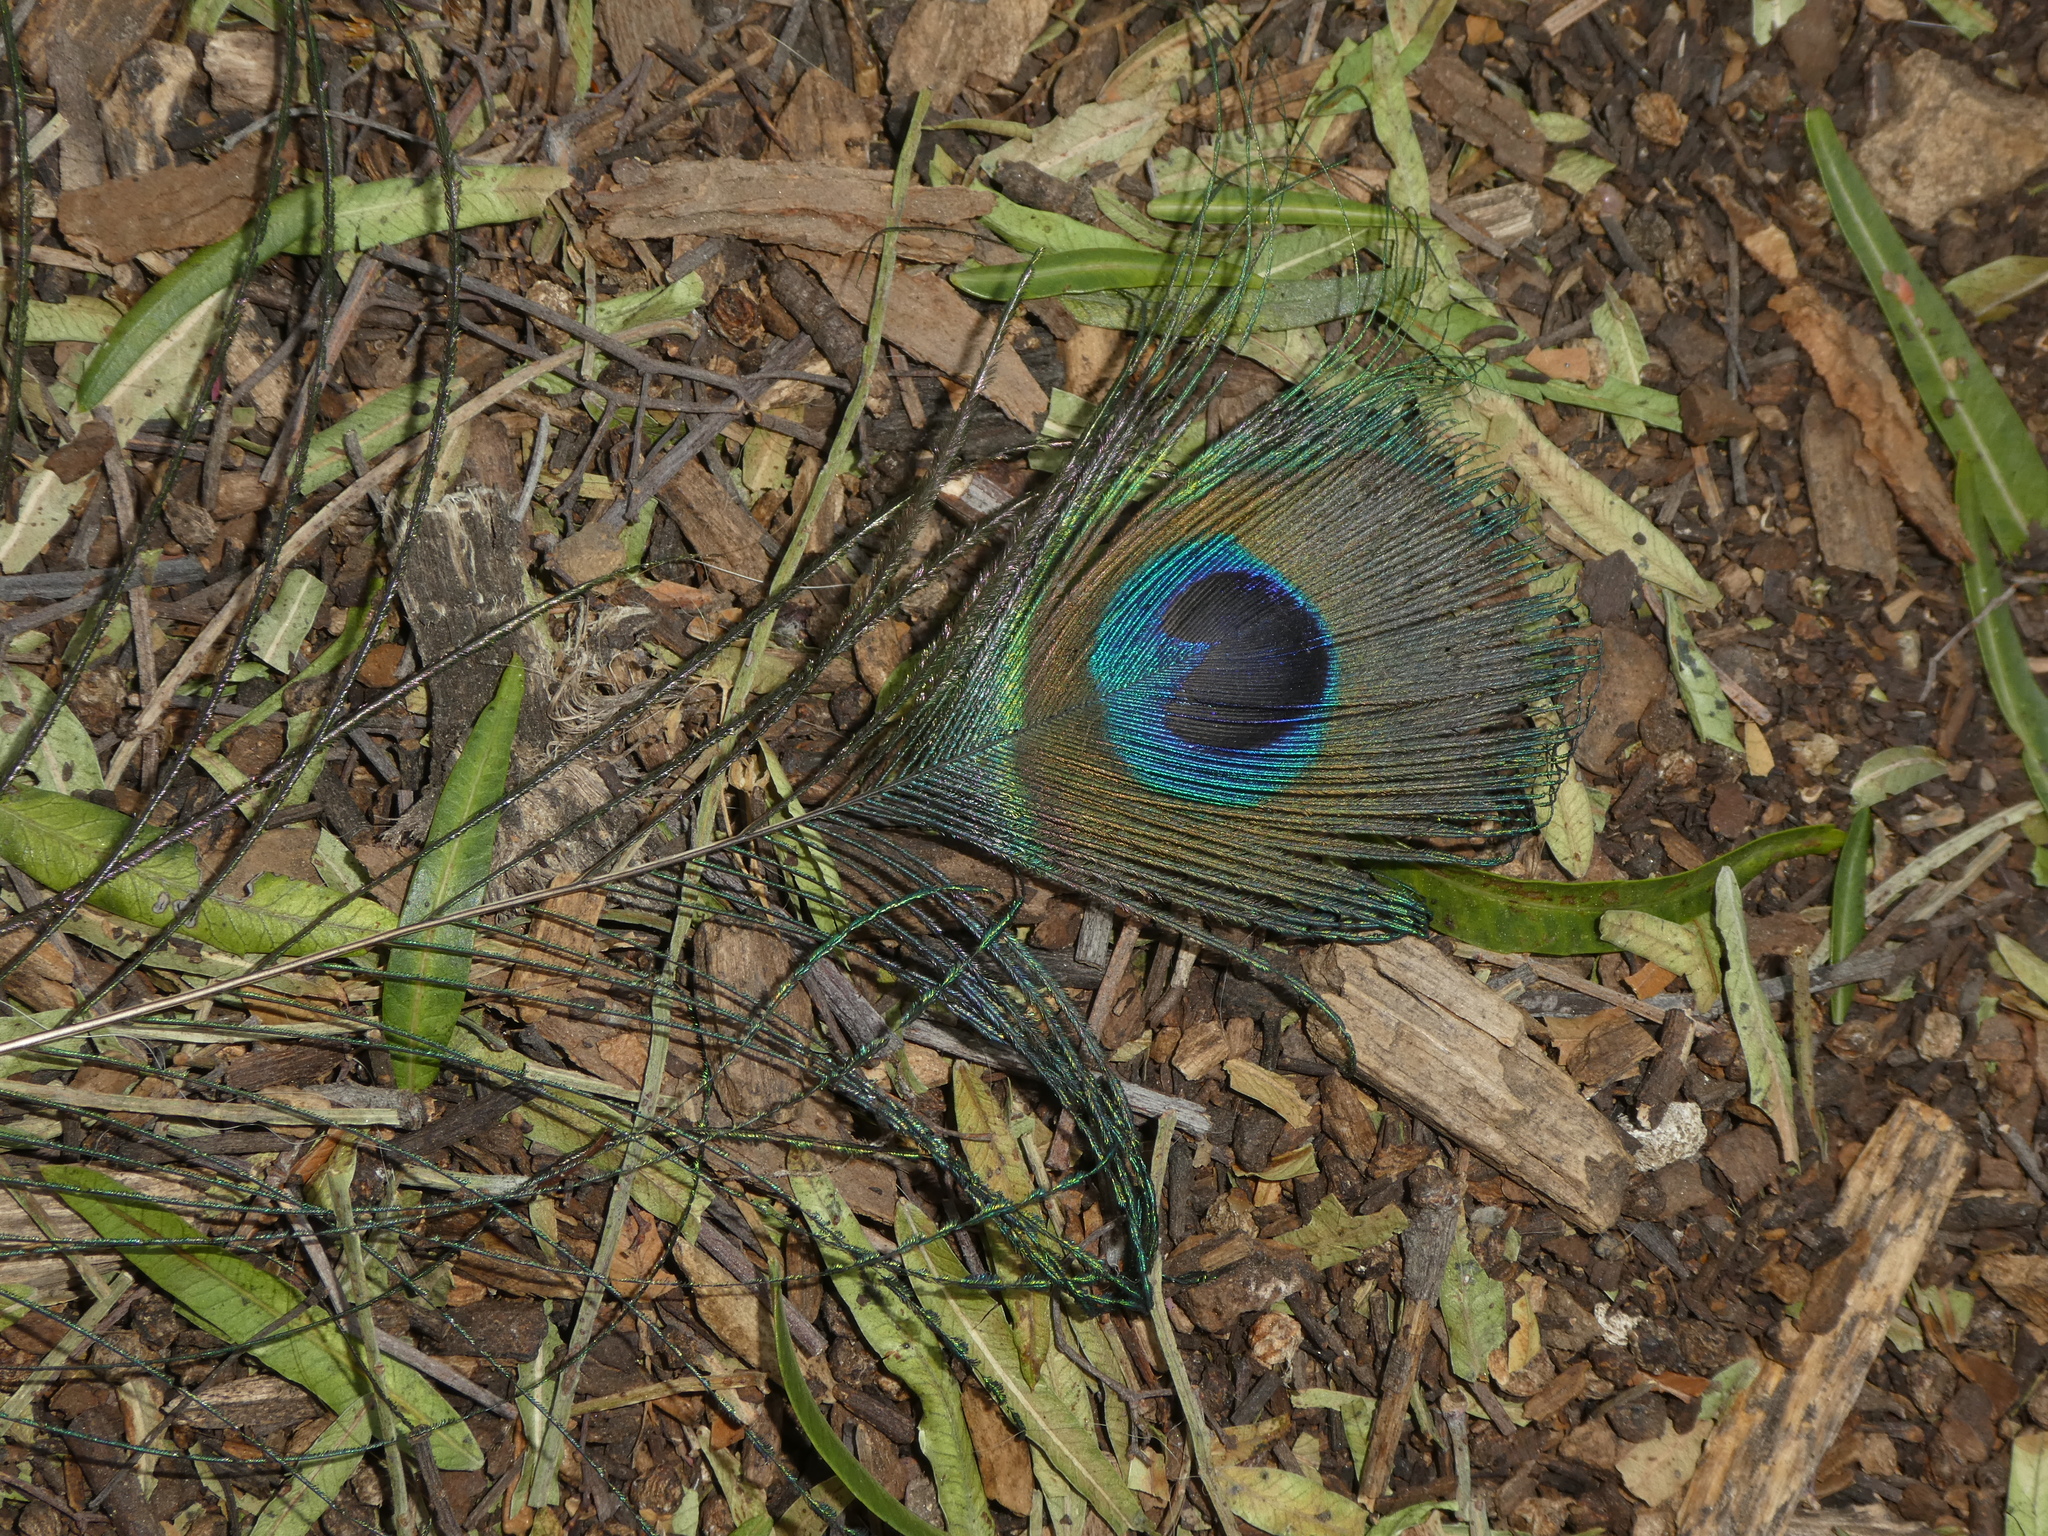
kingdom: Animalia
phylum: Chordata
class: Aves
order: Galliformes
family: Phasianidae
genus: Pavo
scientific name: Pavo cristatus
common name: Indian peafowl
